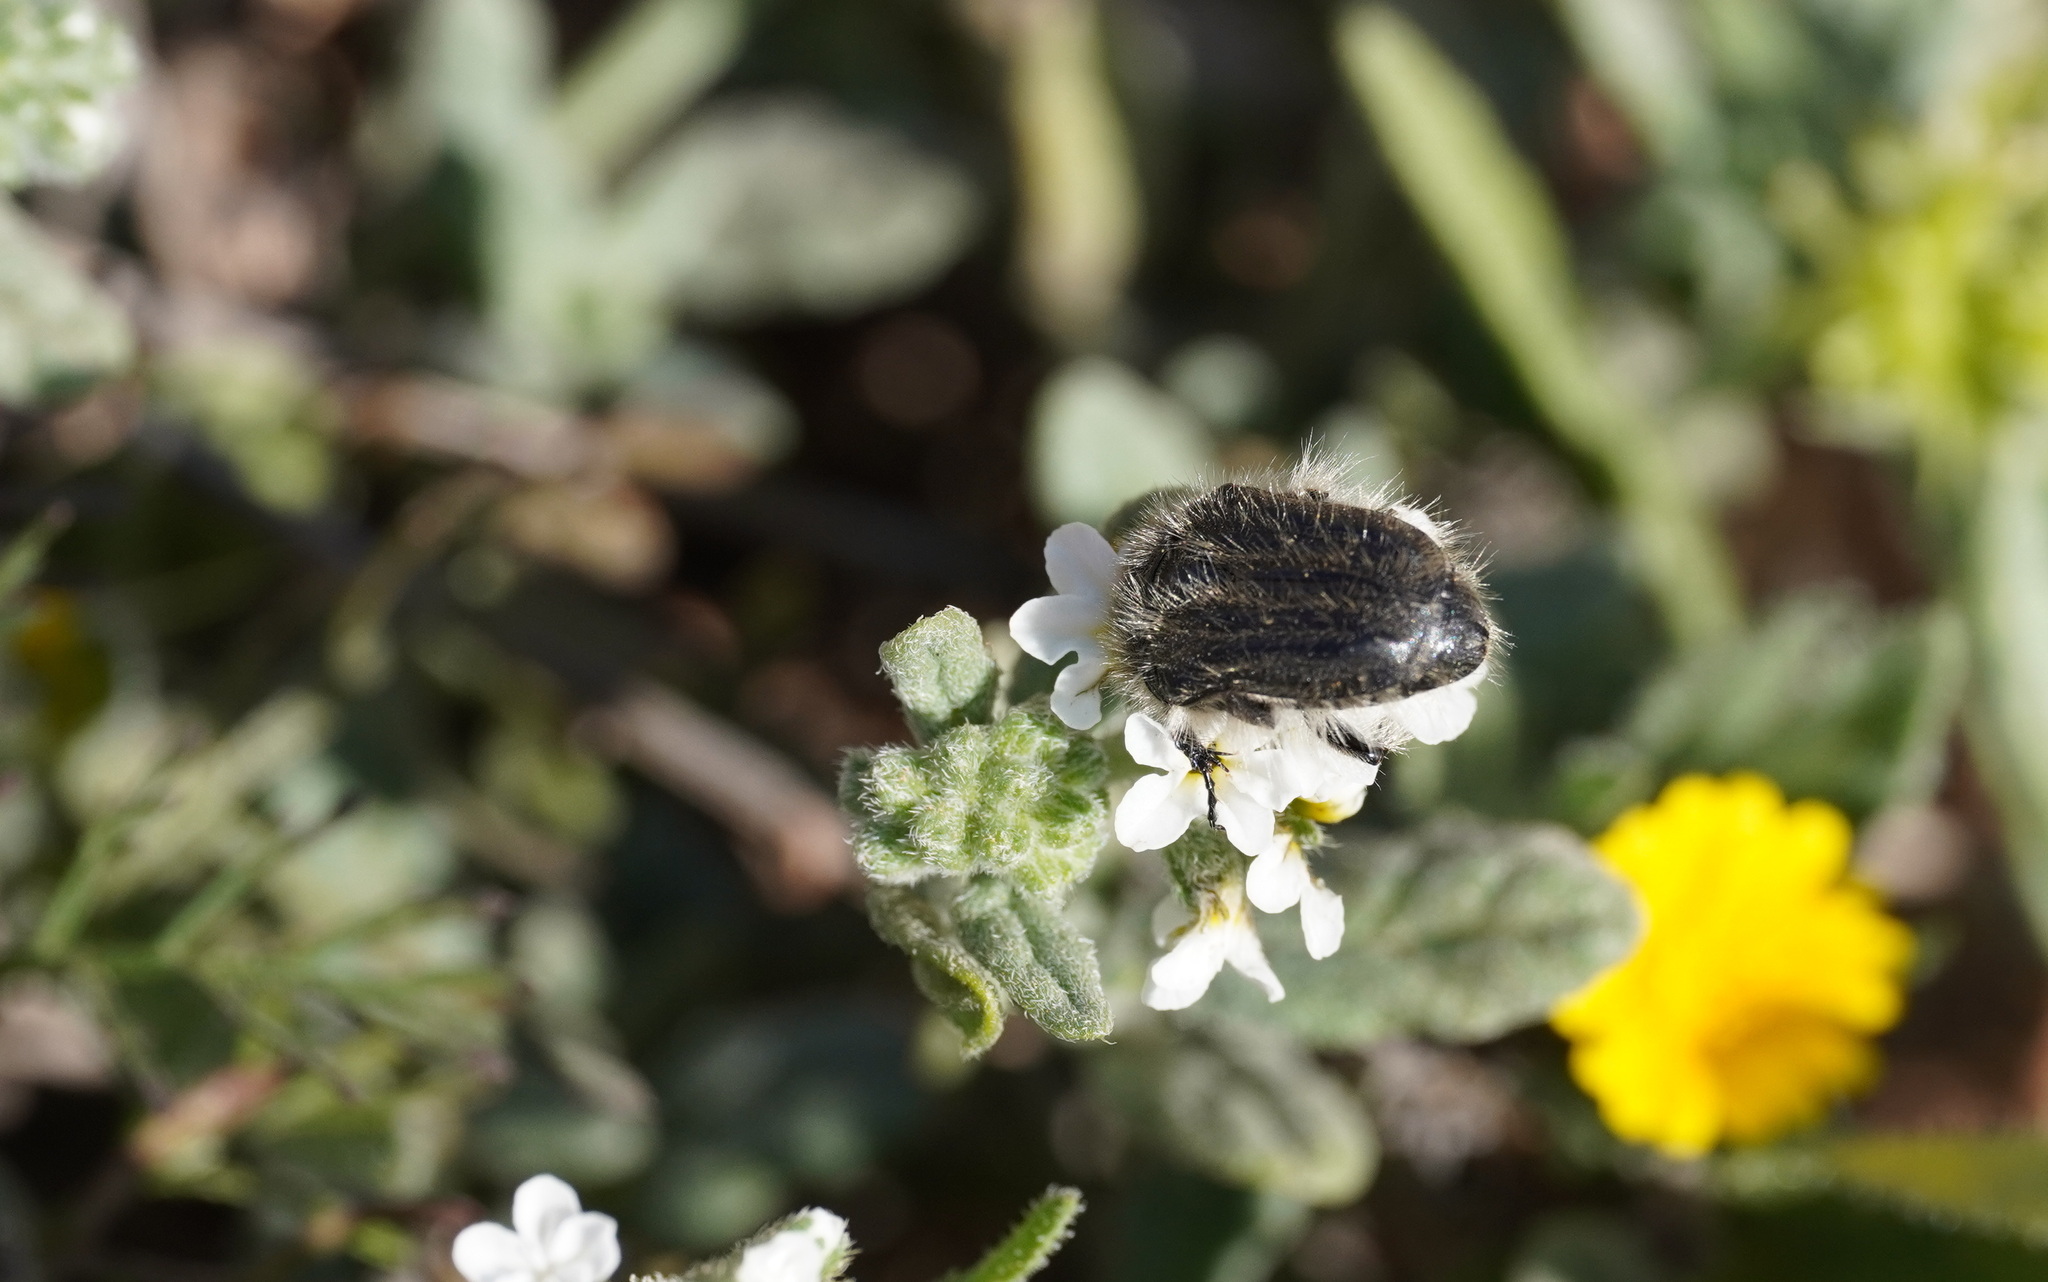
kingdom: Animalia
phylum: Arthropoda
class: Insecta
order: Coleoptera
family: Scarabaeidae
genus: Tropinota
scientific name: Tropinota squalida
